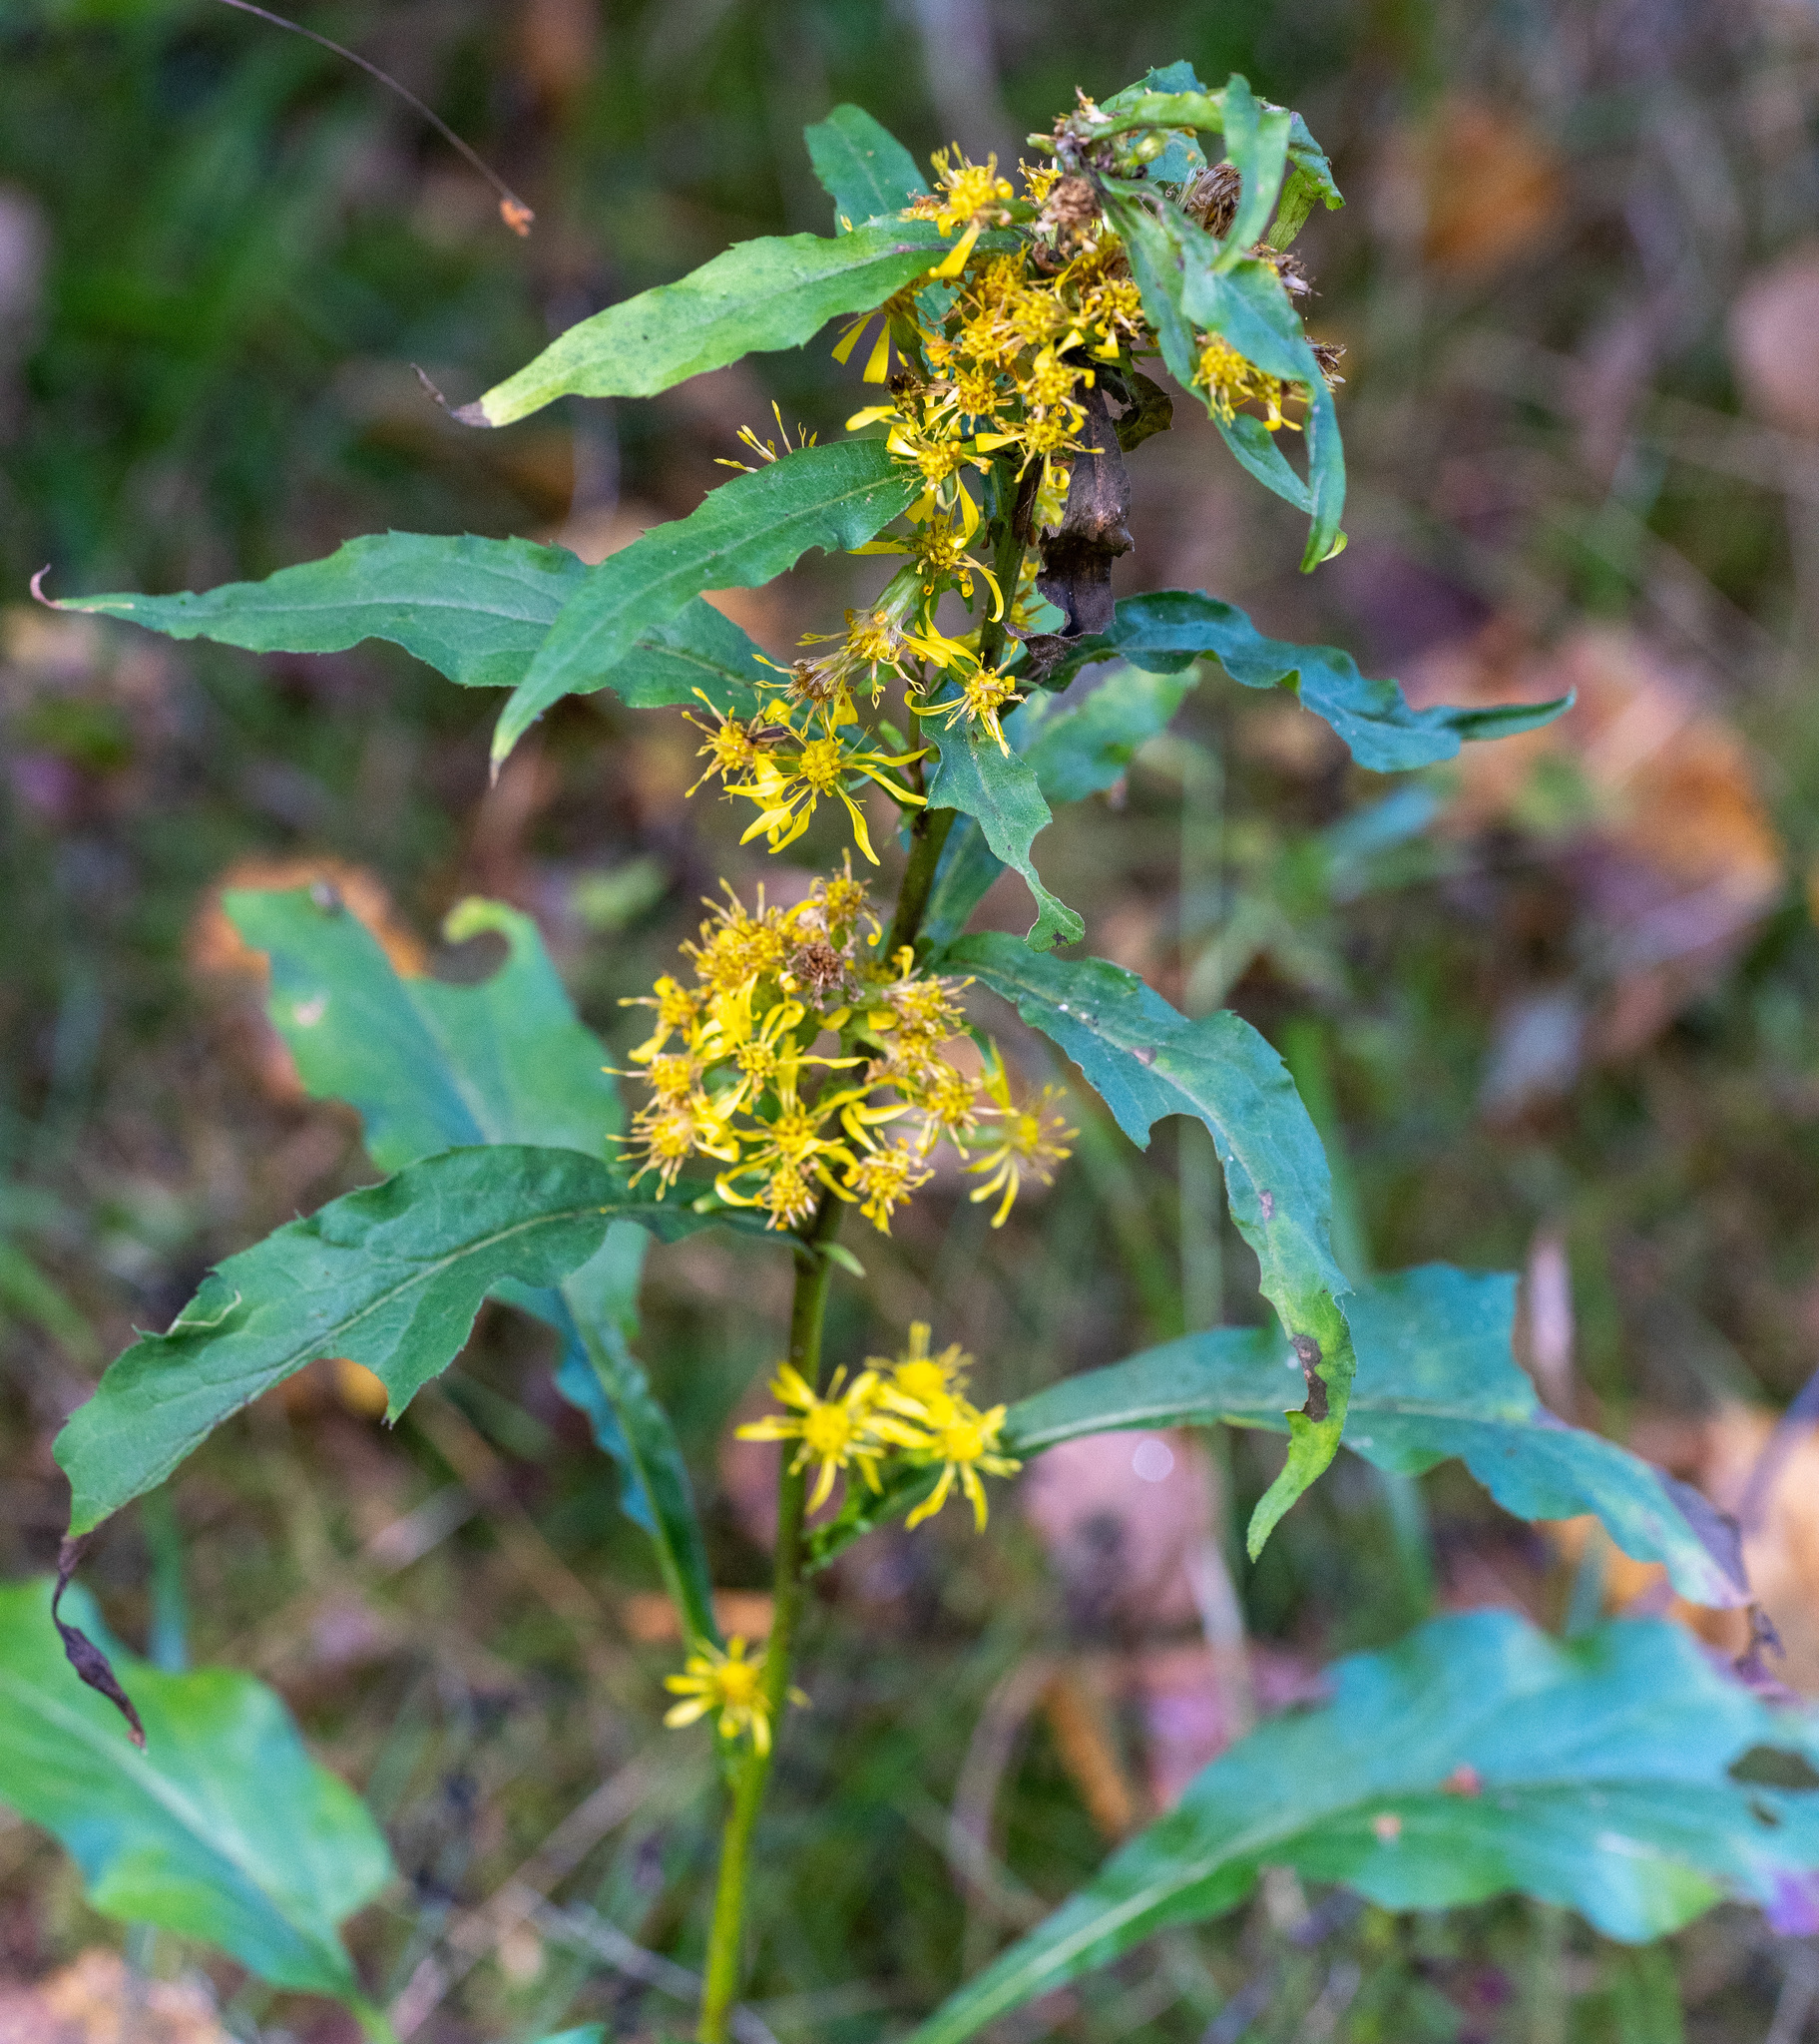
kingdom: Plantae
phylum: Tracheophyta
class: Magnoliopsida
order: Asterales
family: Asteraceae
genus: Solidago
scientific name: Solidago virgaurea
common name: Goldenrod
